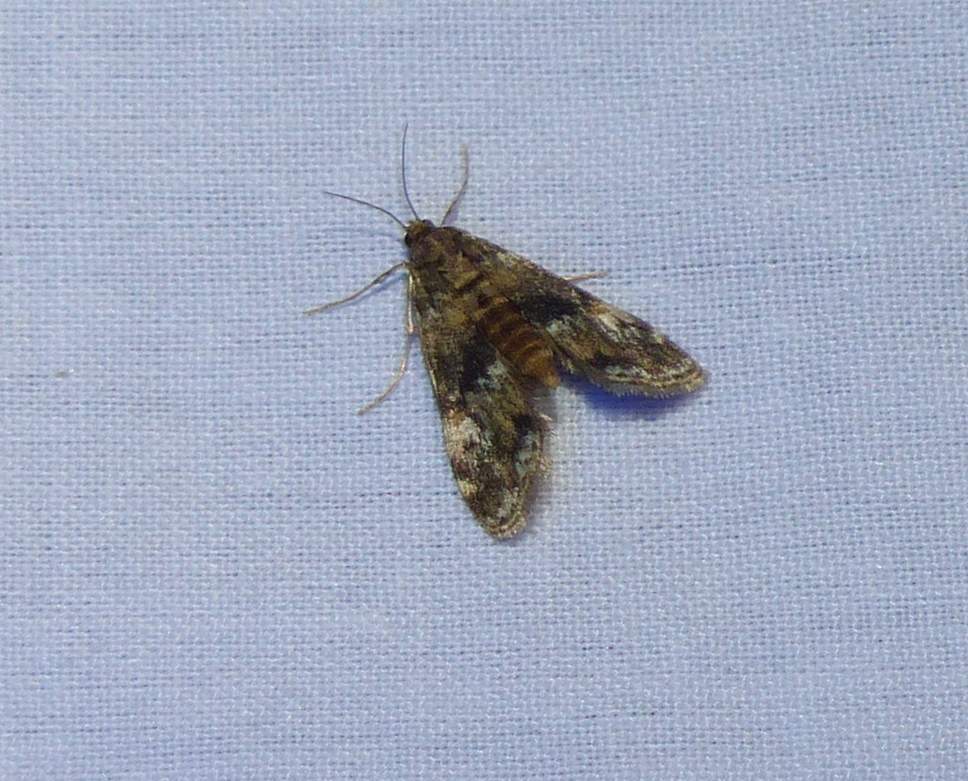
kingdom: Animalia
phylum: Arthropoda
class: Insecta
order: Lepidoptera
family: Crambidae
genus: Elophila
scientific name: Elophila obliteralis
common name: Waterlily leafcutter moth
